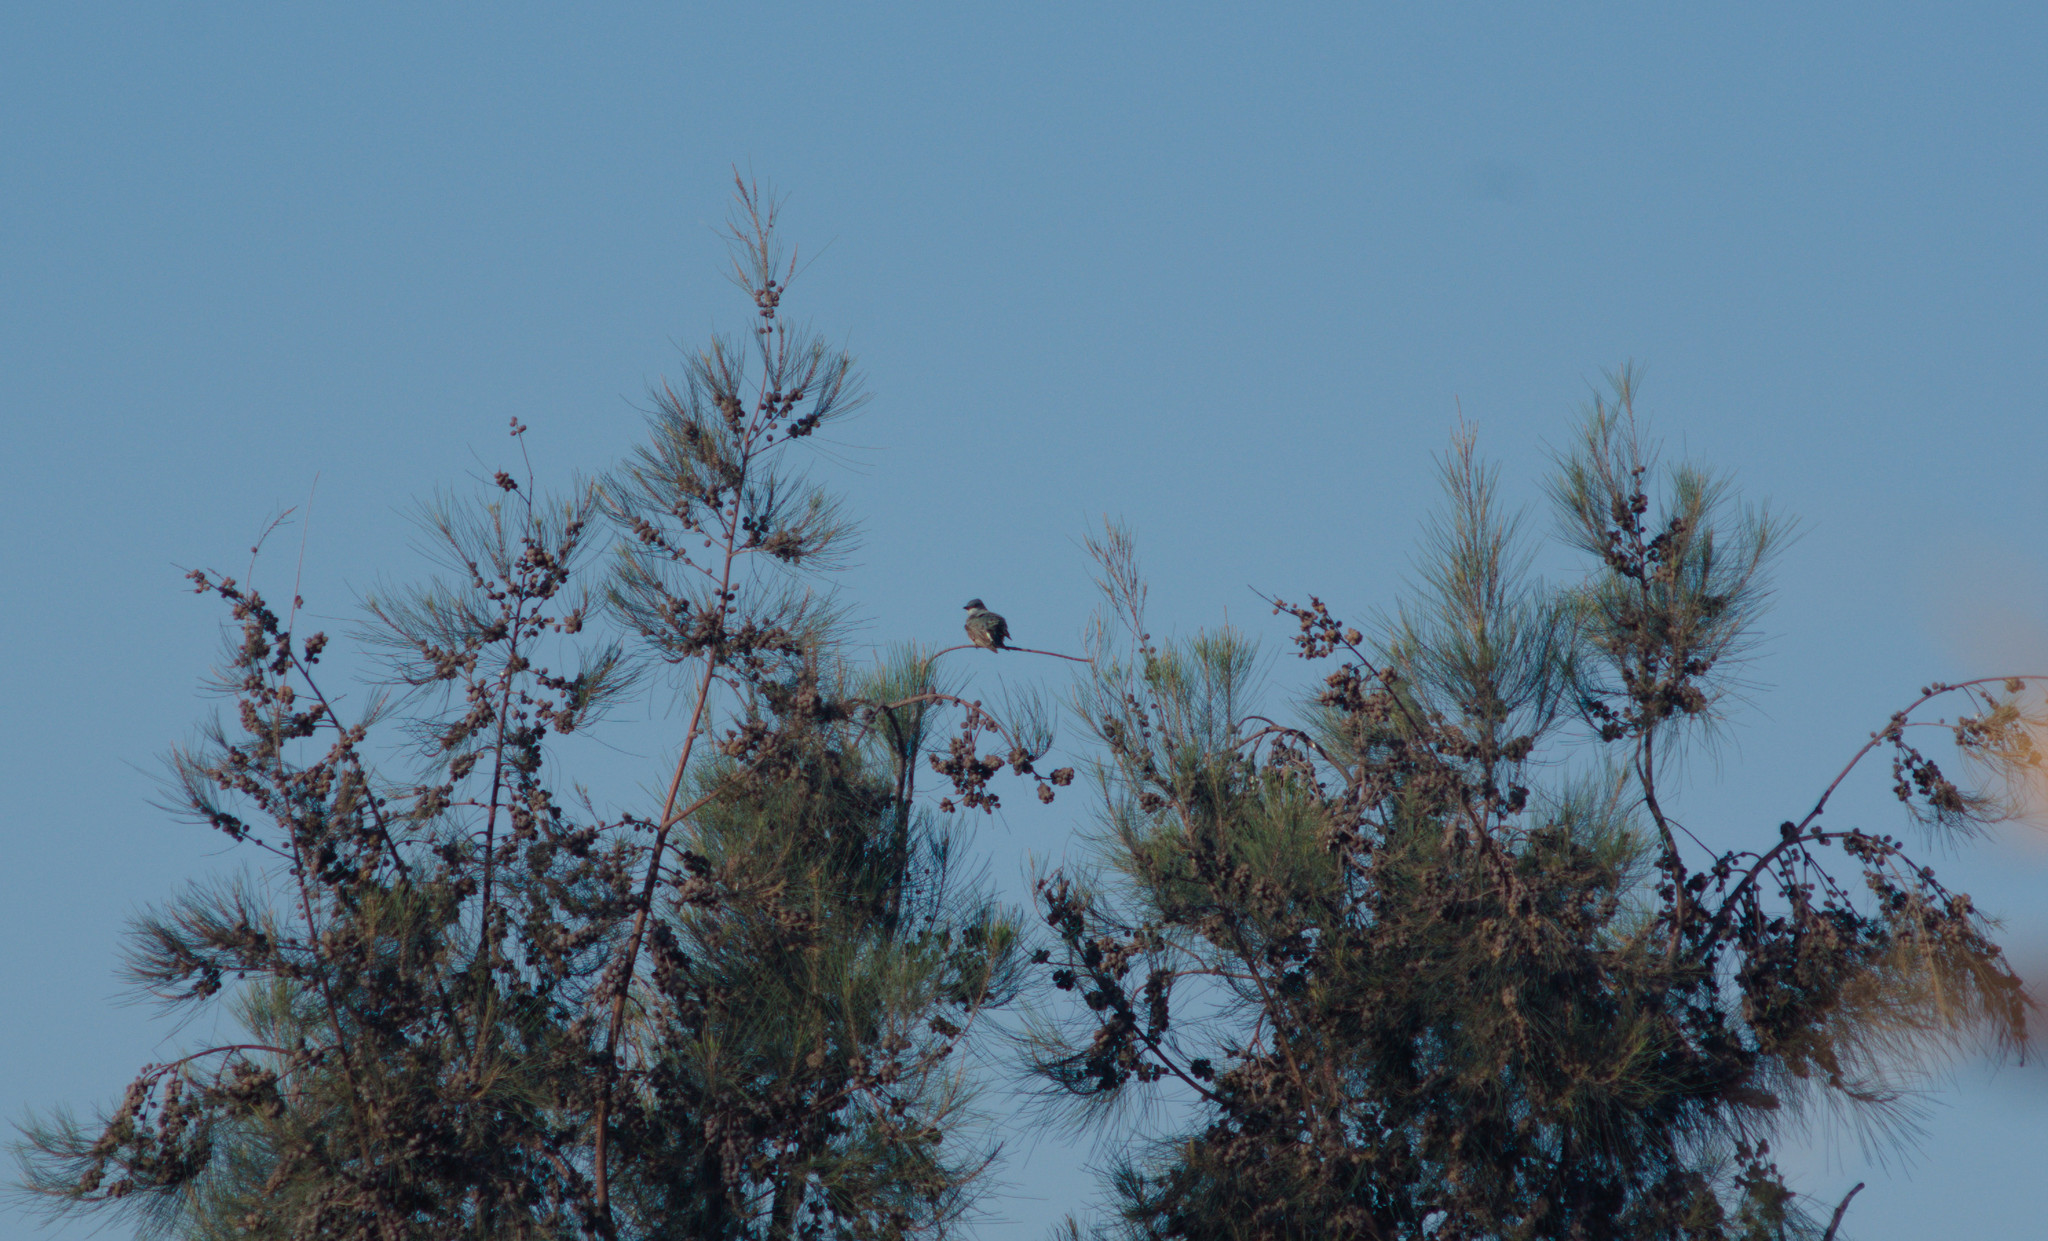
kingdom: Animalia
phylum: Chordata
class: Aves
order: Passeriformes
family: Tyrannidae
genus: Tyrannus
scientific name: Tyrannus vociferans
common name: Cassin's kingbird
